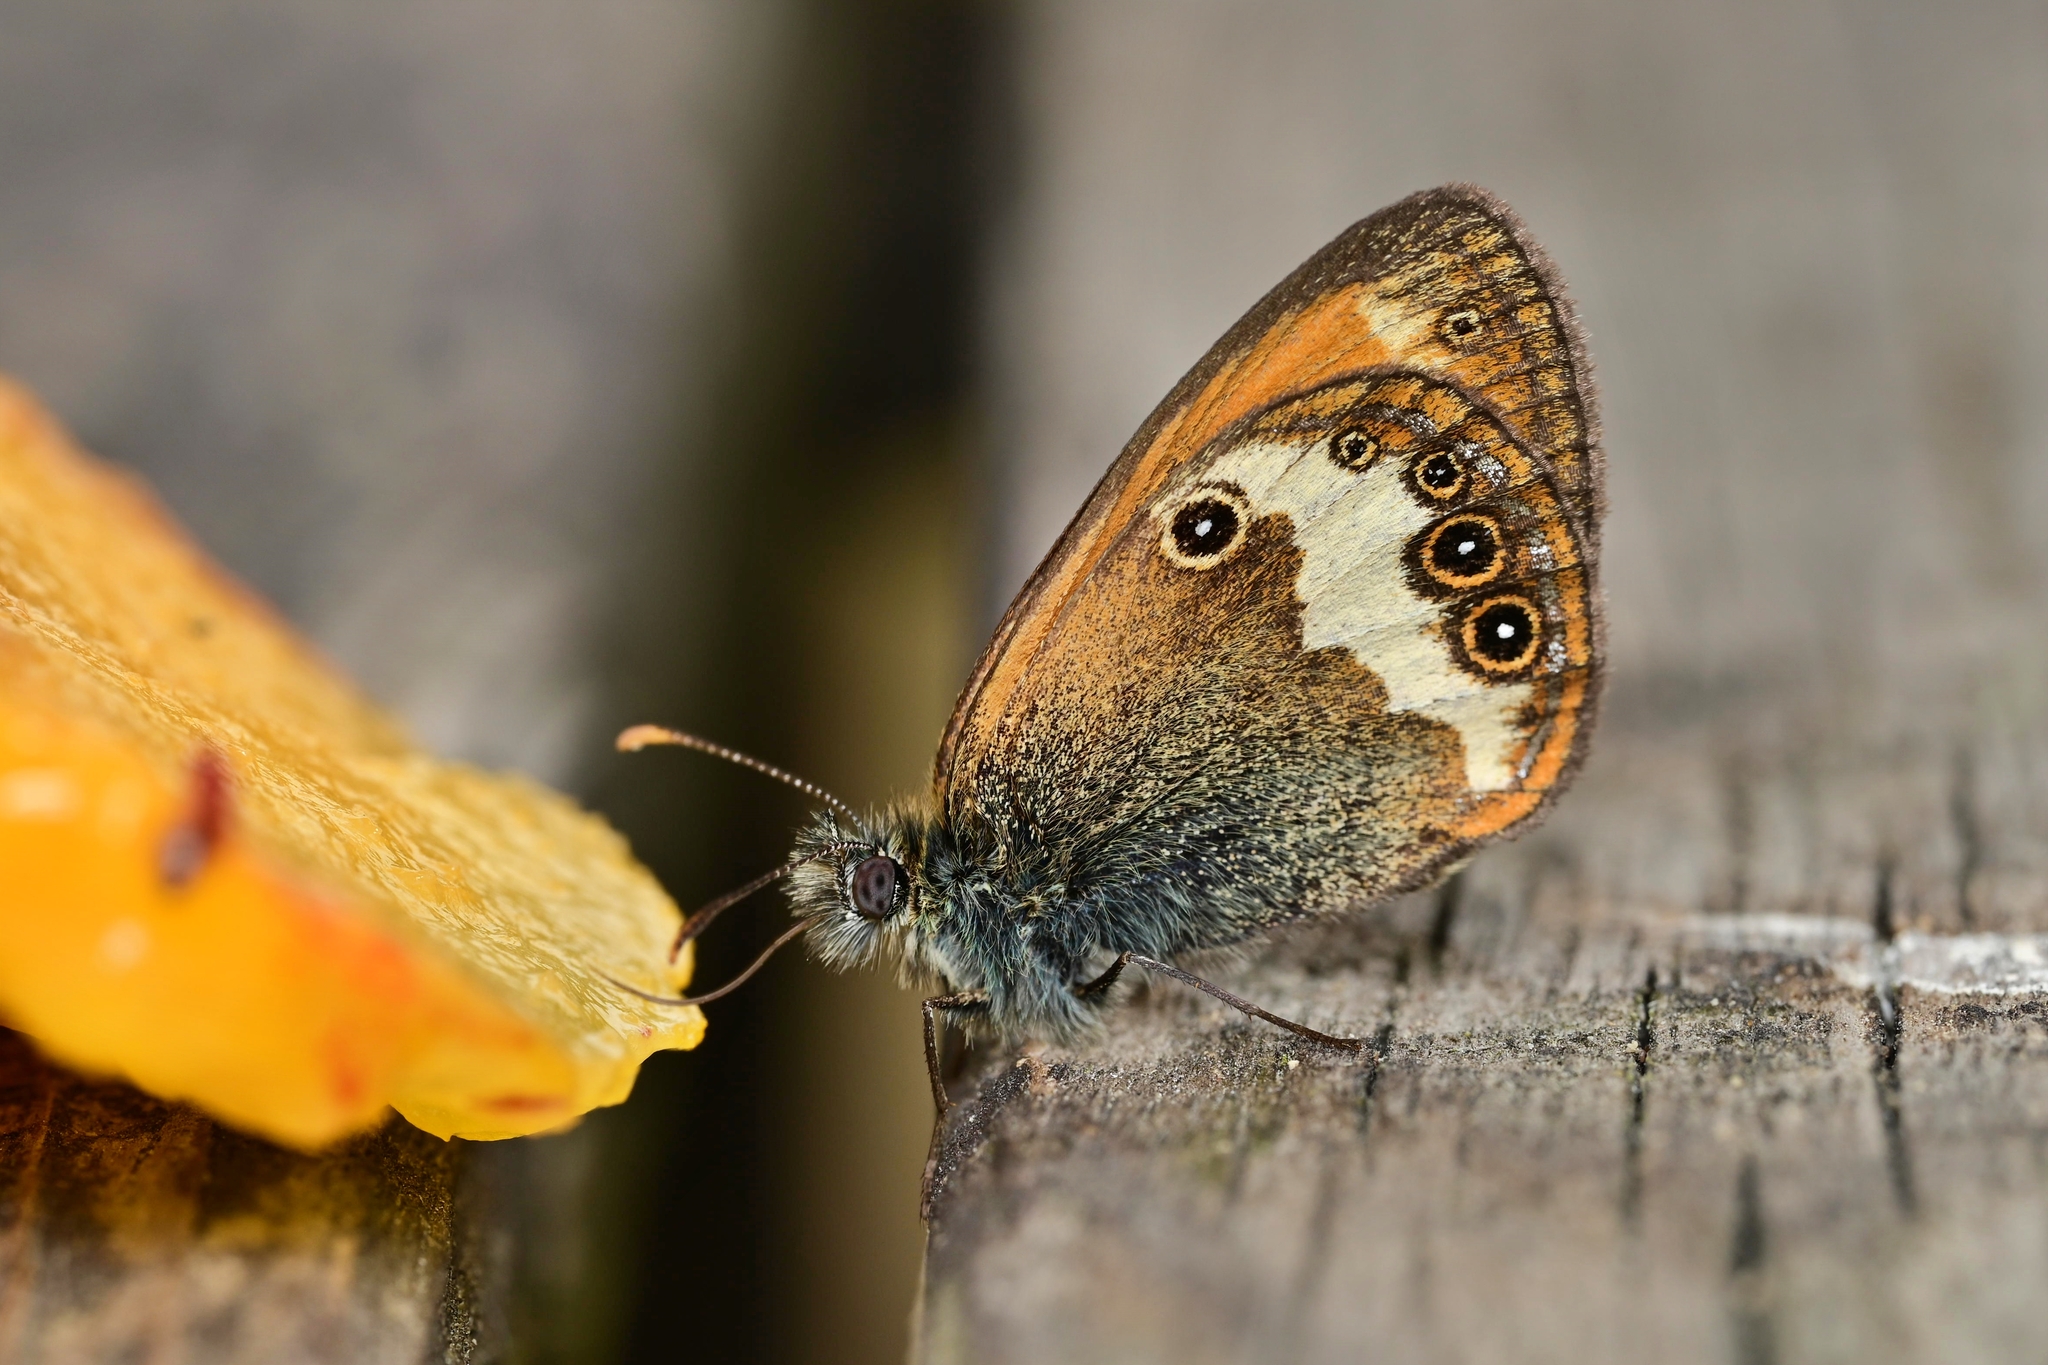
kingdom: Animalia
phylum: Arthropoda
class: Insecta
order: Lepidoptera
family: Nymphalidae
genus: Coenonympha
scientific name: Coenonympha arcania
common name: Pearly heath
